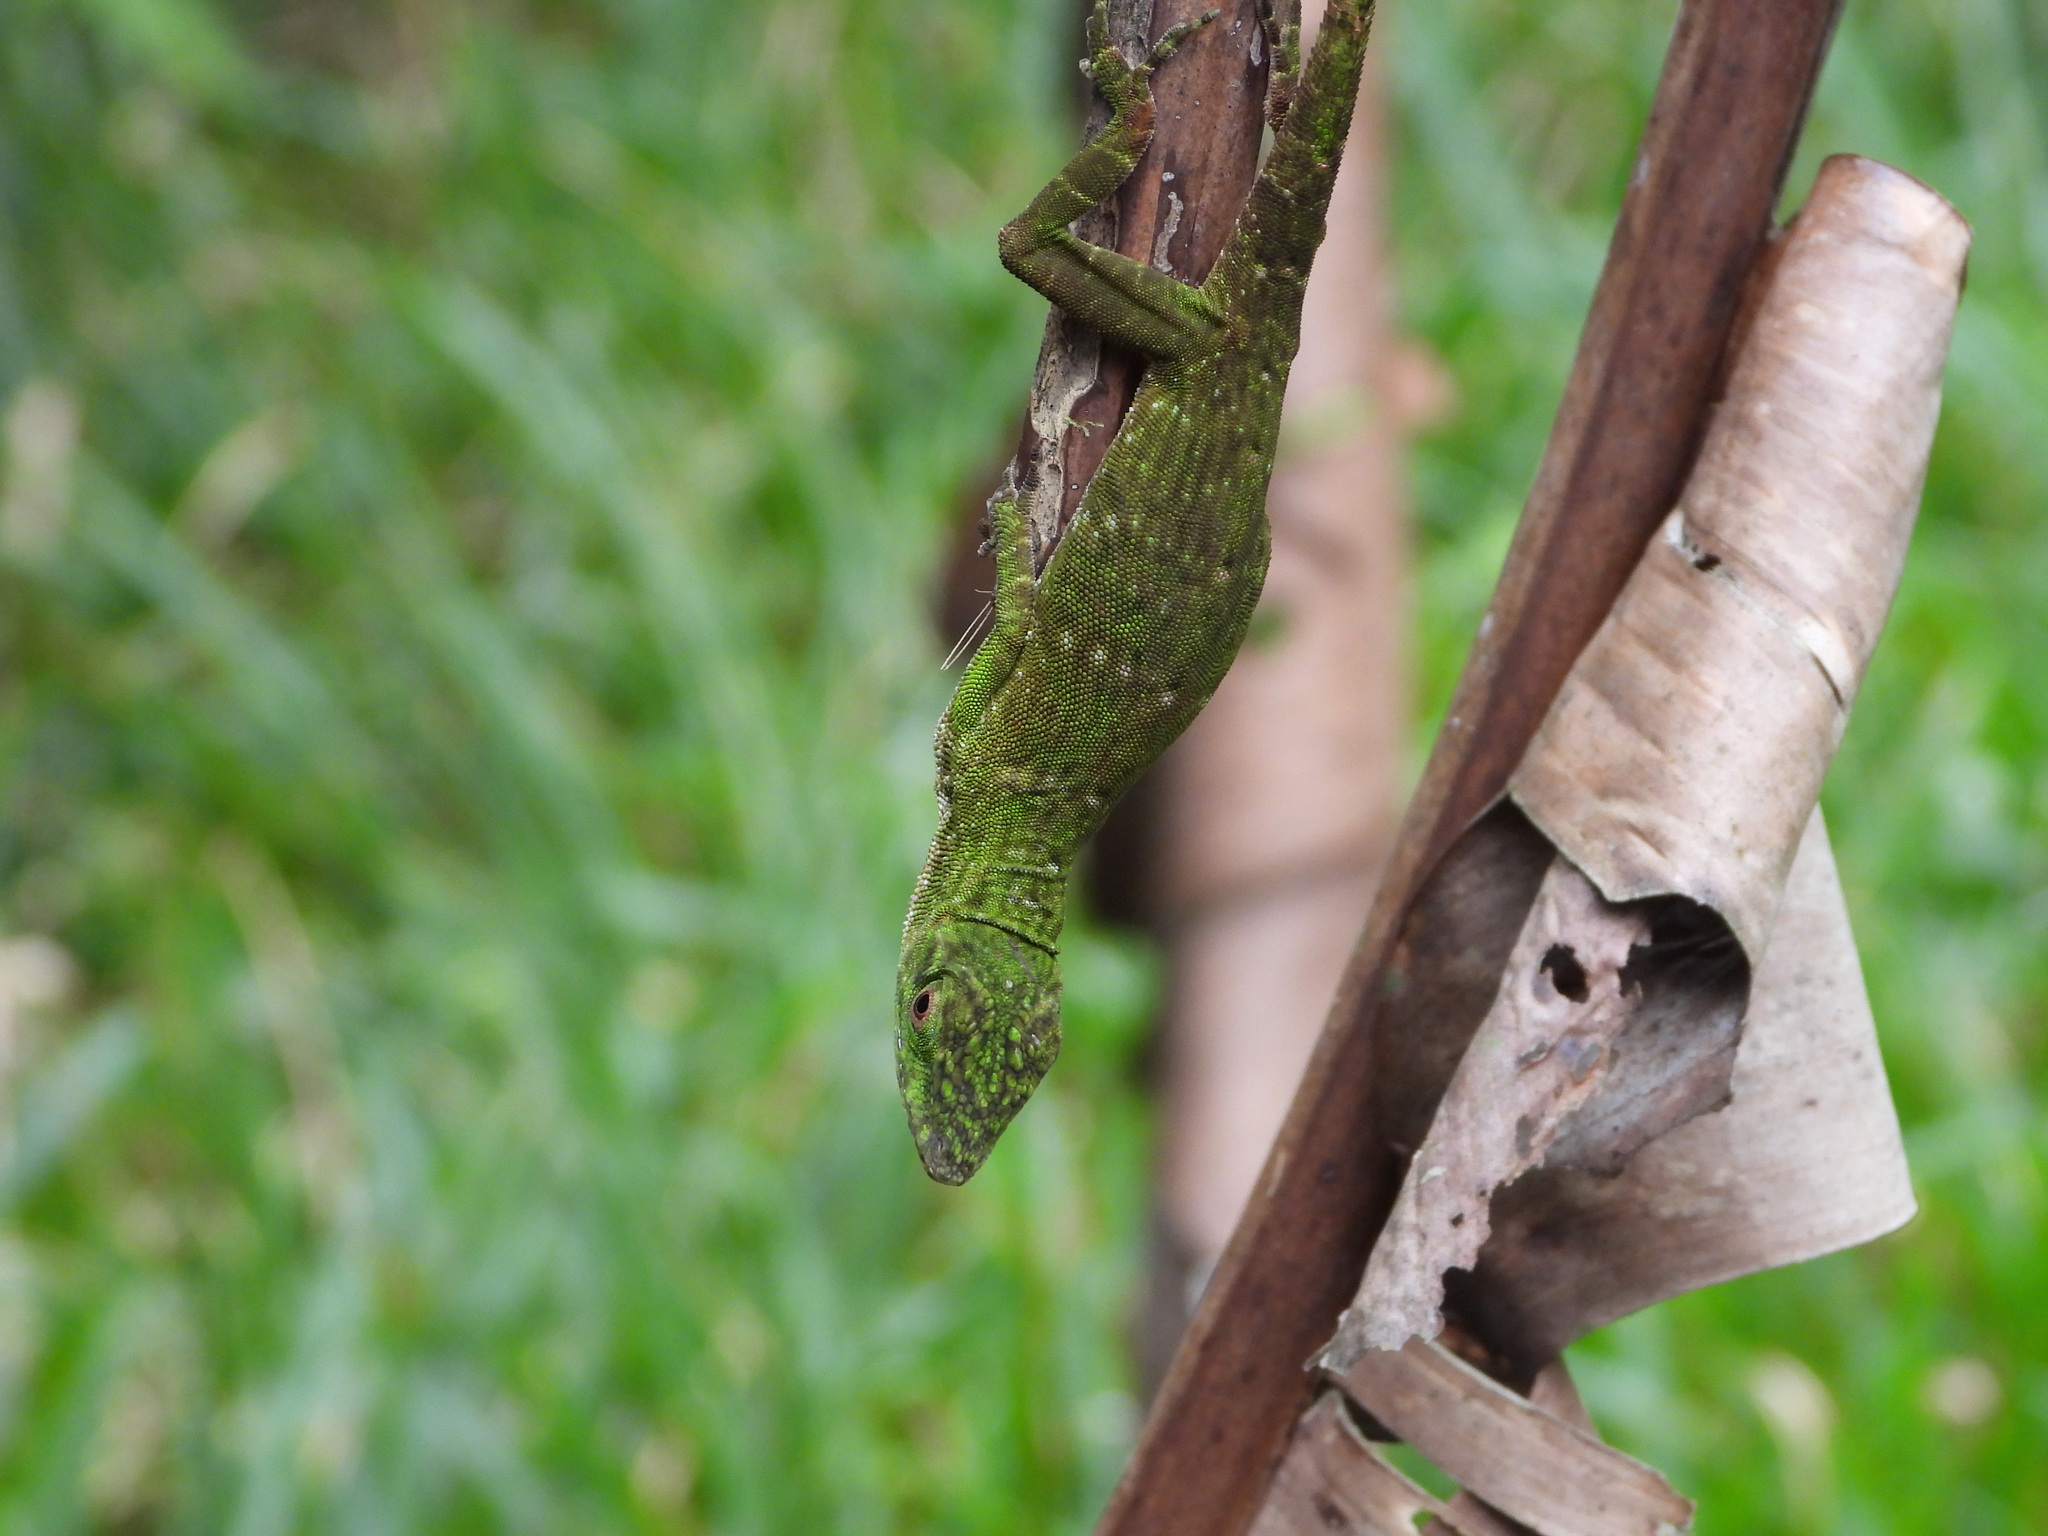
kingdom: Animalia
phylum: Chordata
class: Squamata
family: Dactyloidae
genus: Anolis
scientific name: Anolis biporcatus
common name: Giant green anole
